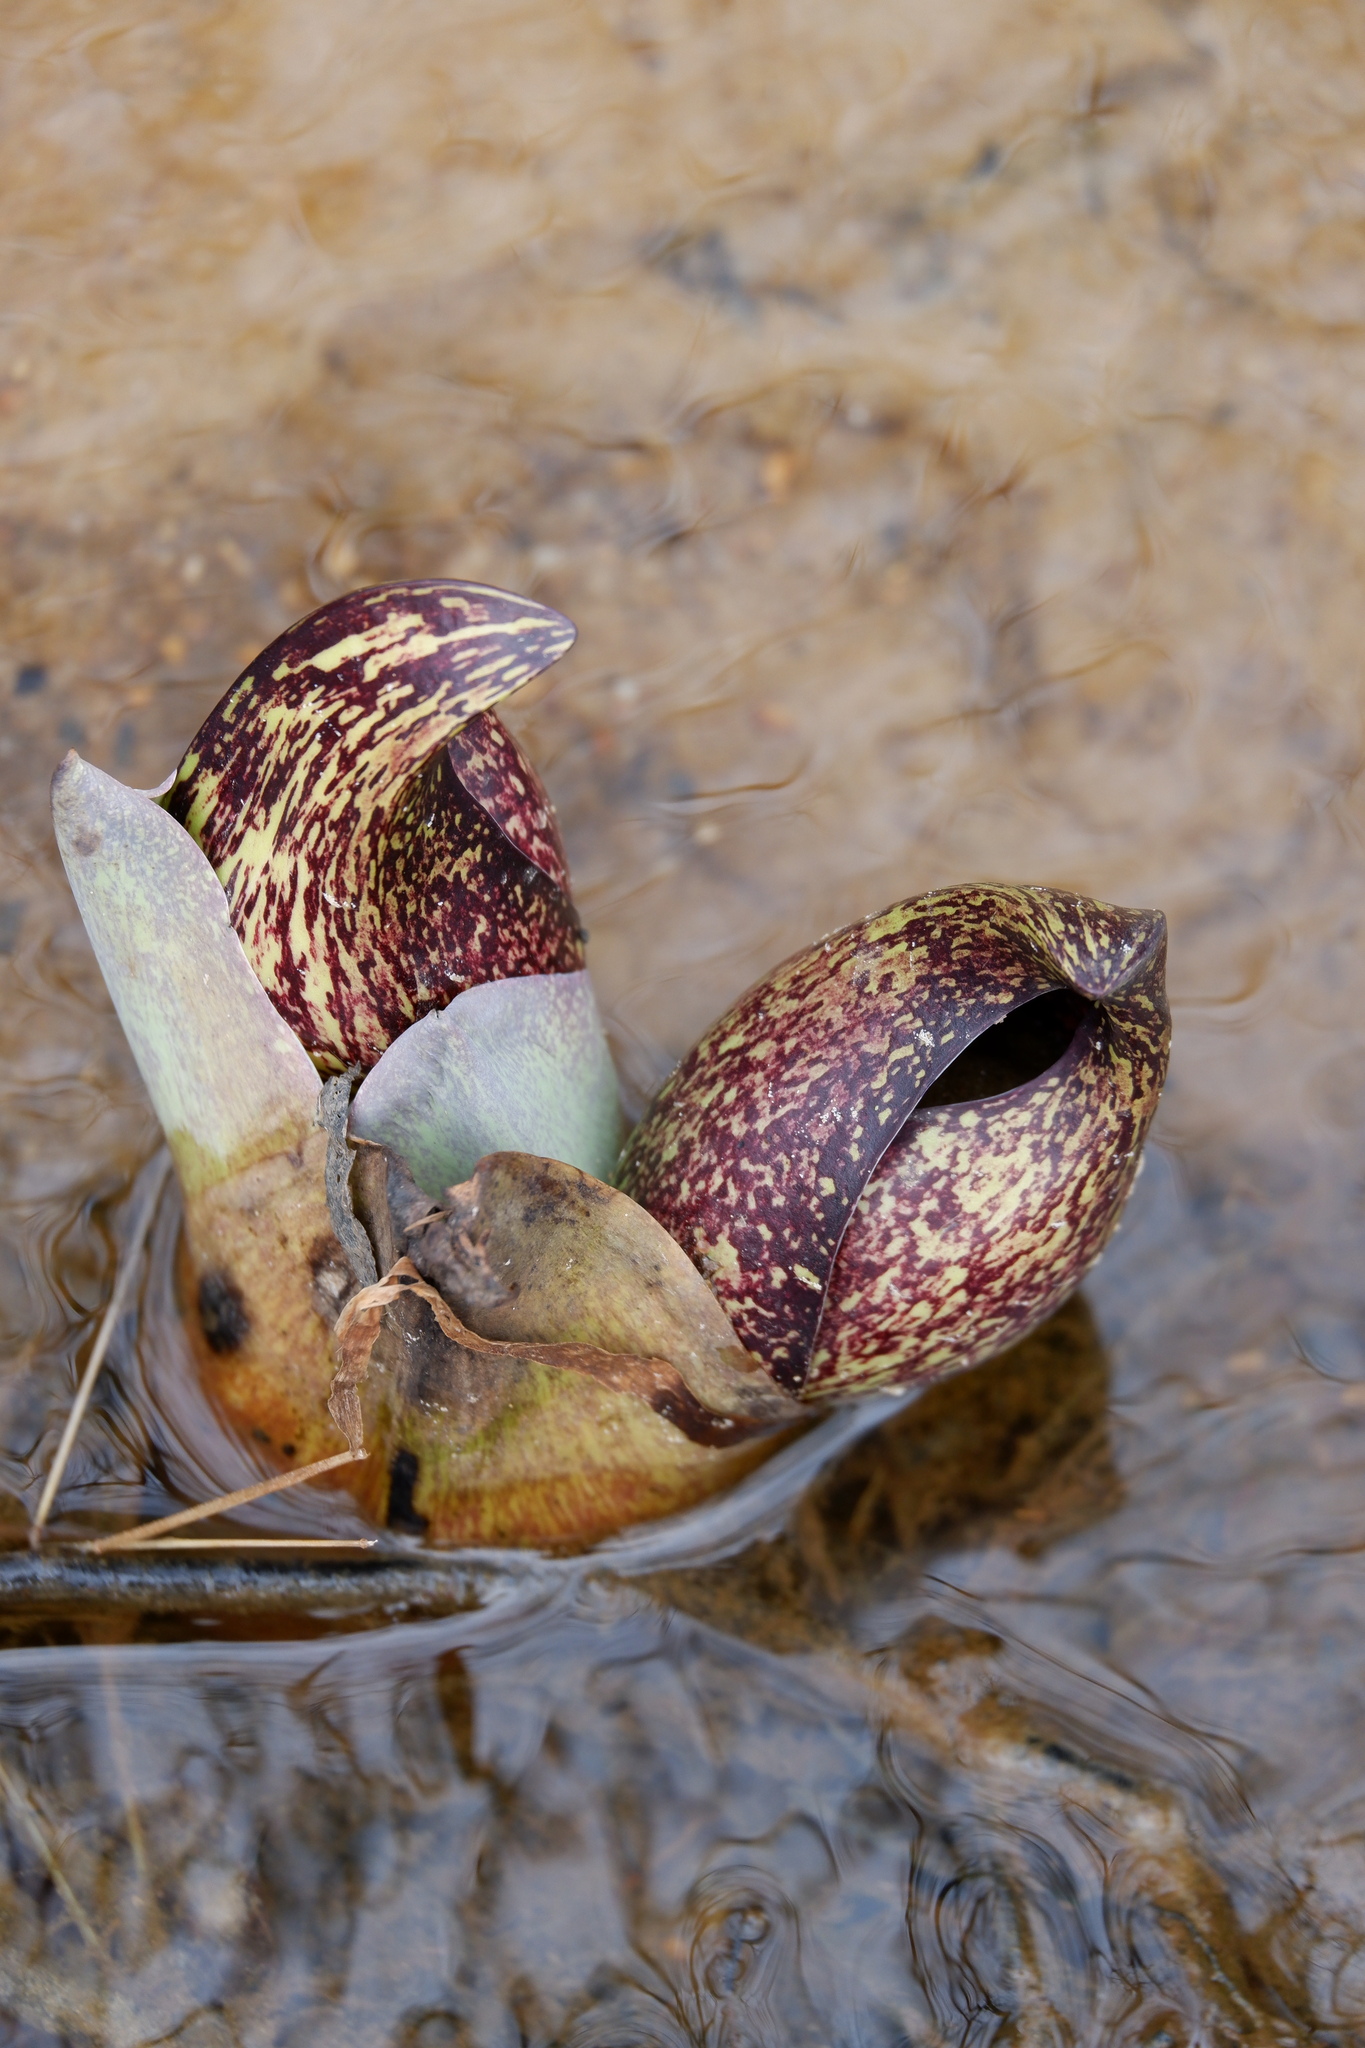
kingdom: Plantae
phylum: Tracheophyta
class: Liliopsida
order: Alismatales
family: Araceae
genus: Symplocarpus
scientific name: Symplocarpus foetidus
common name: Eastern skunk cabbage
